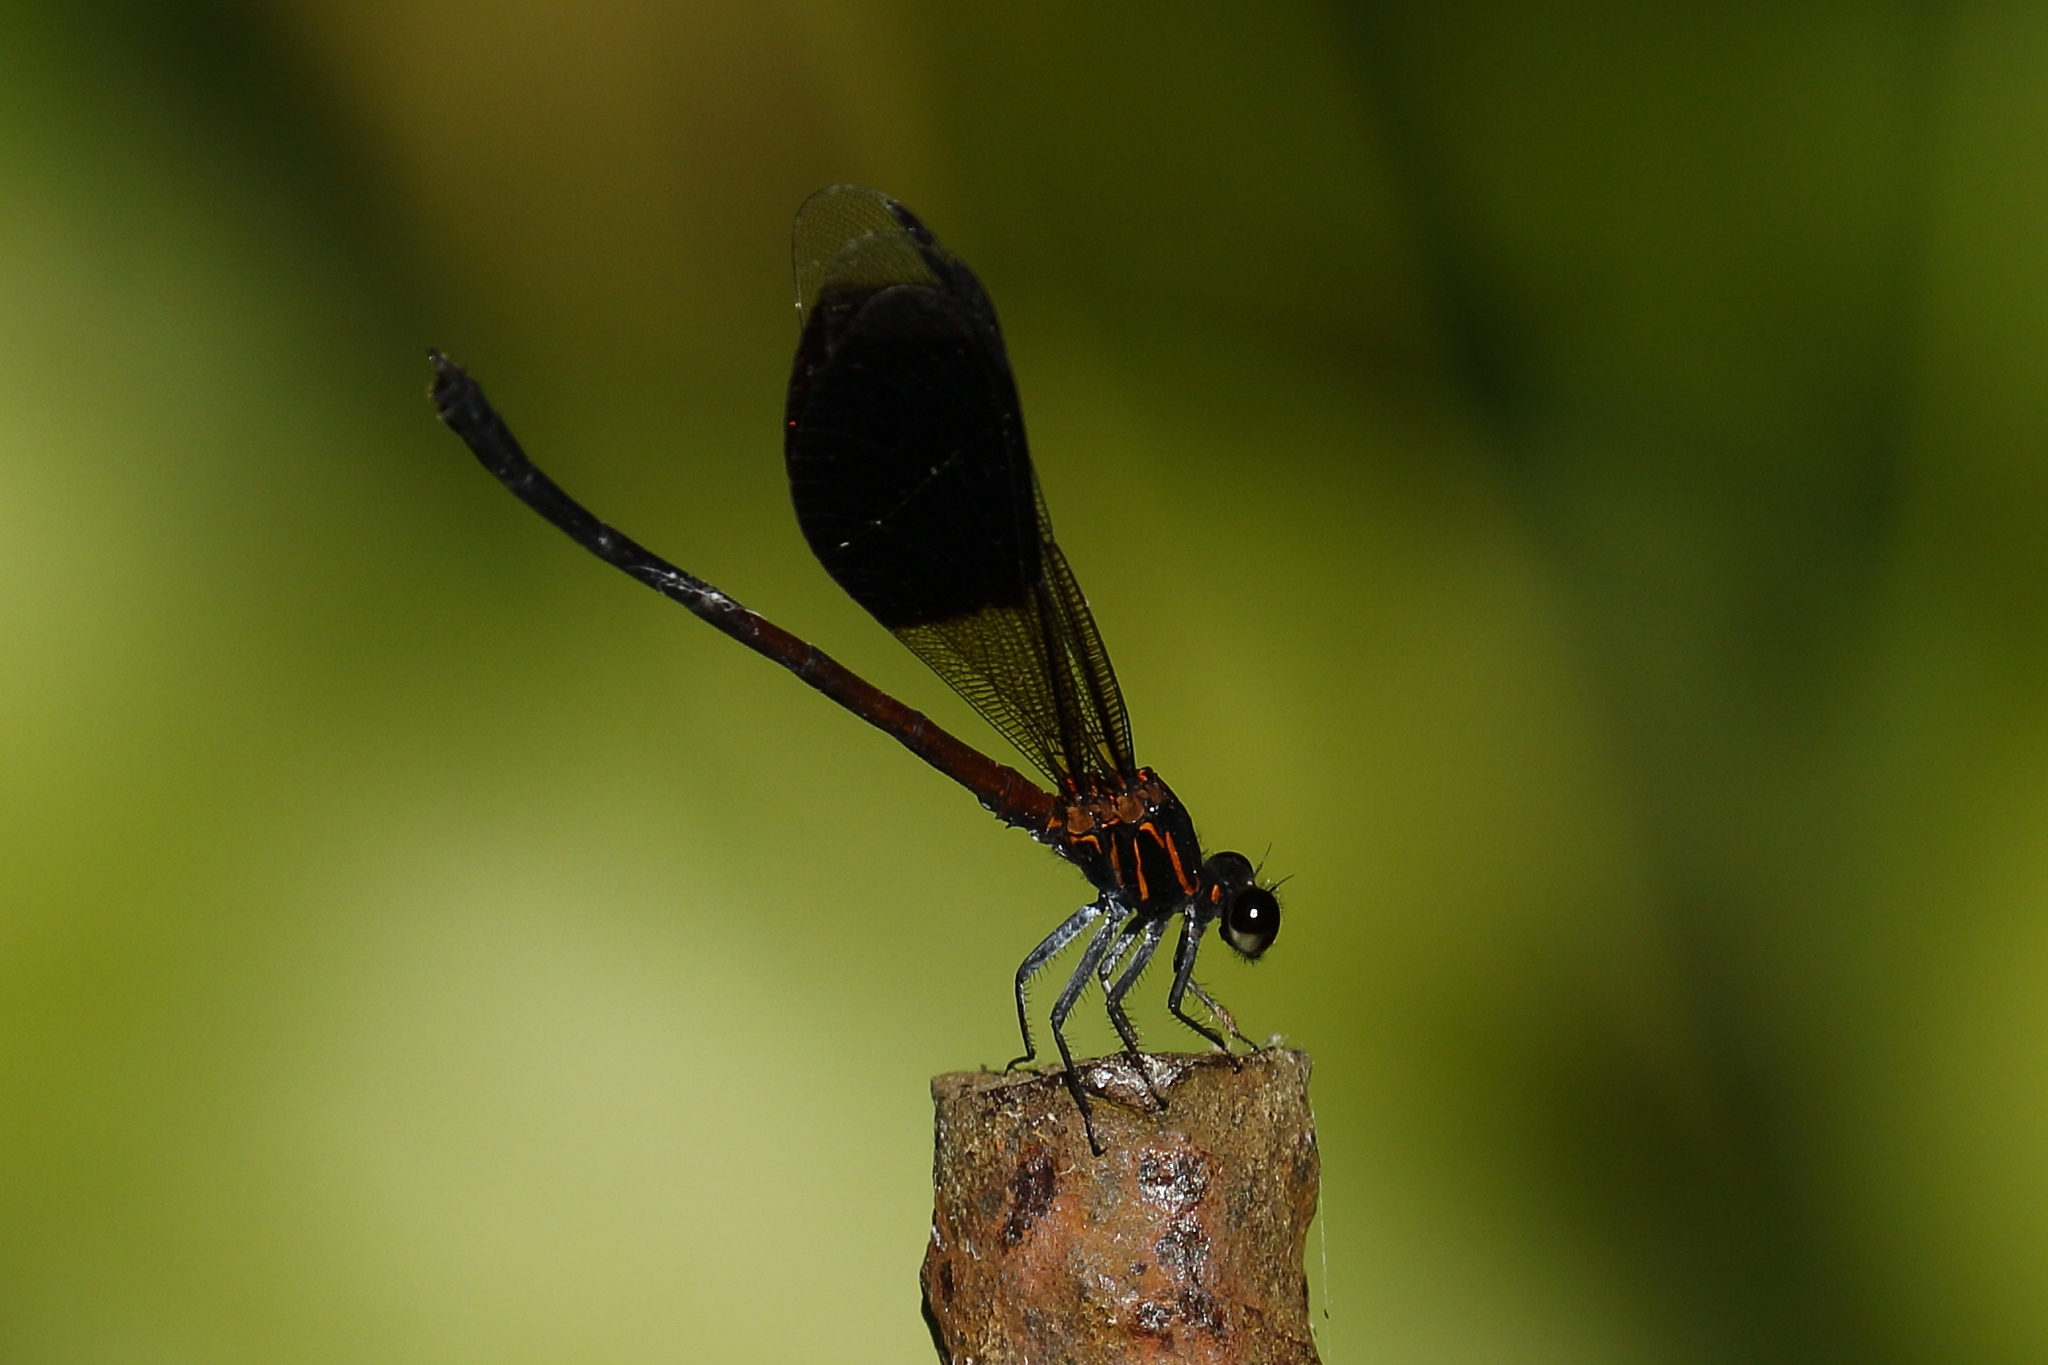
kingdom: Animalia
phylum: Arthropoda
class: Insecta
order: Odonata
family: Euphaeidae
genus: Euphaea
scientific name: Euphaea formosa
